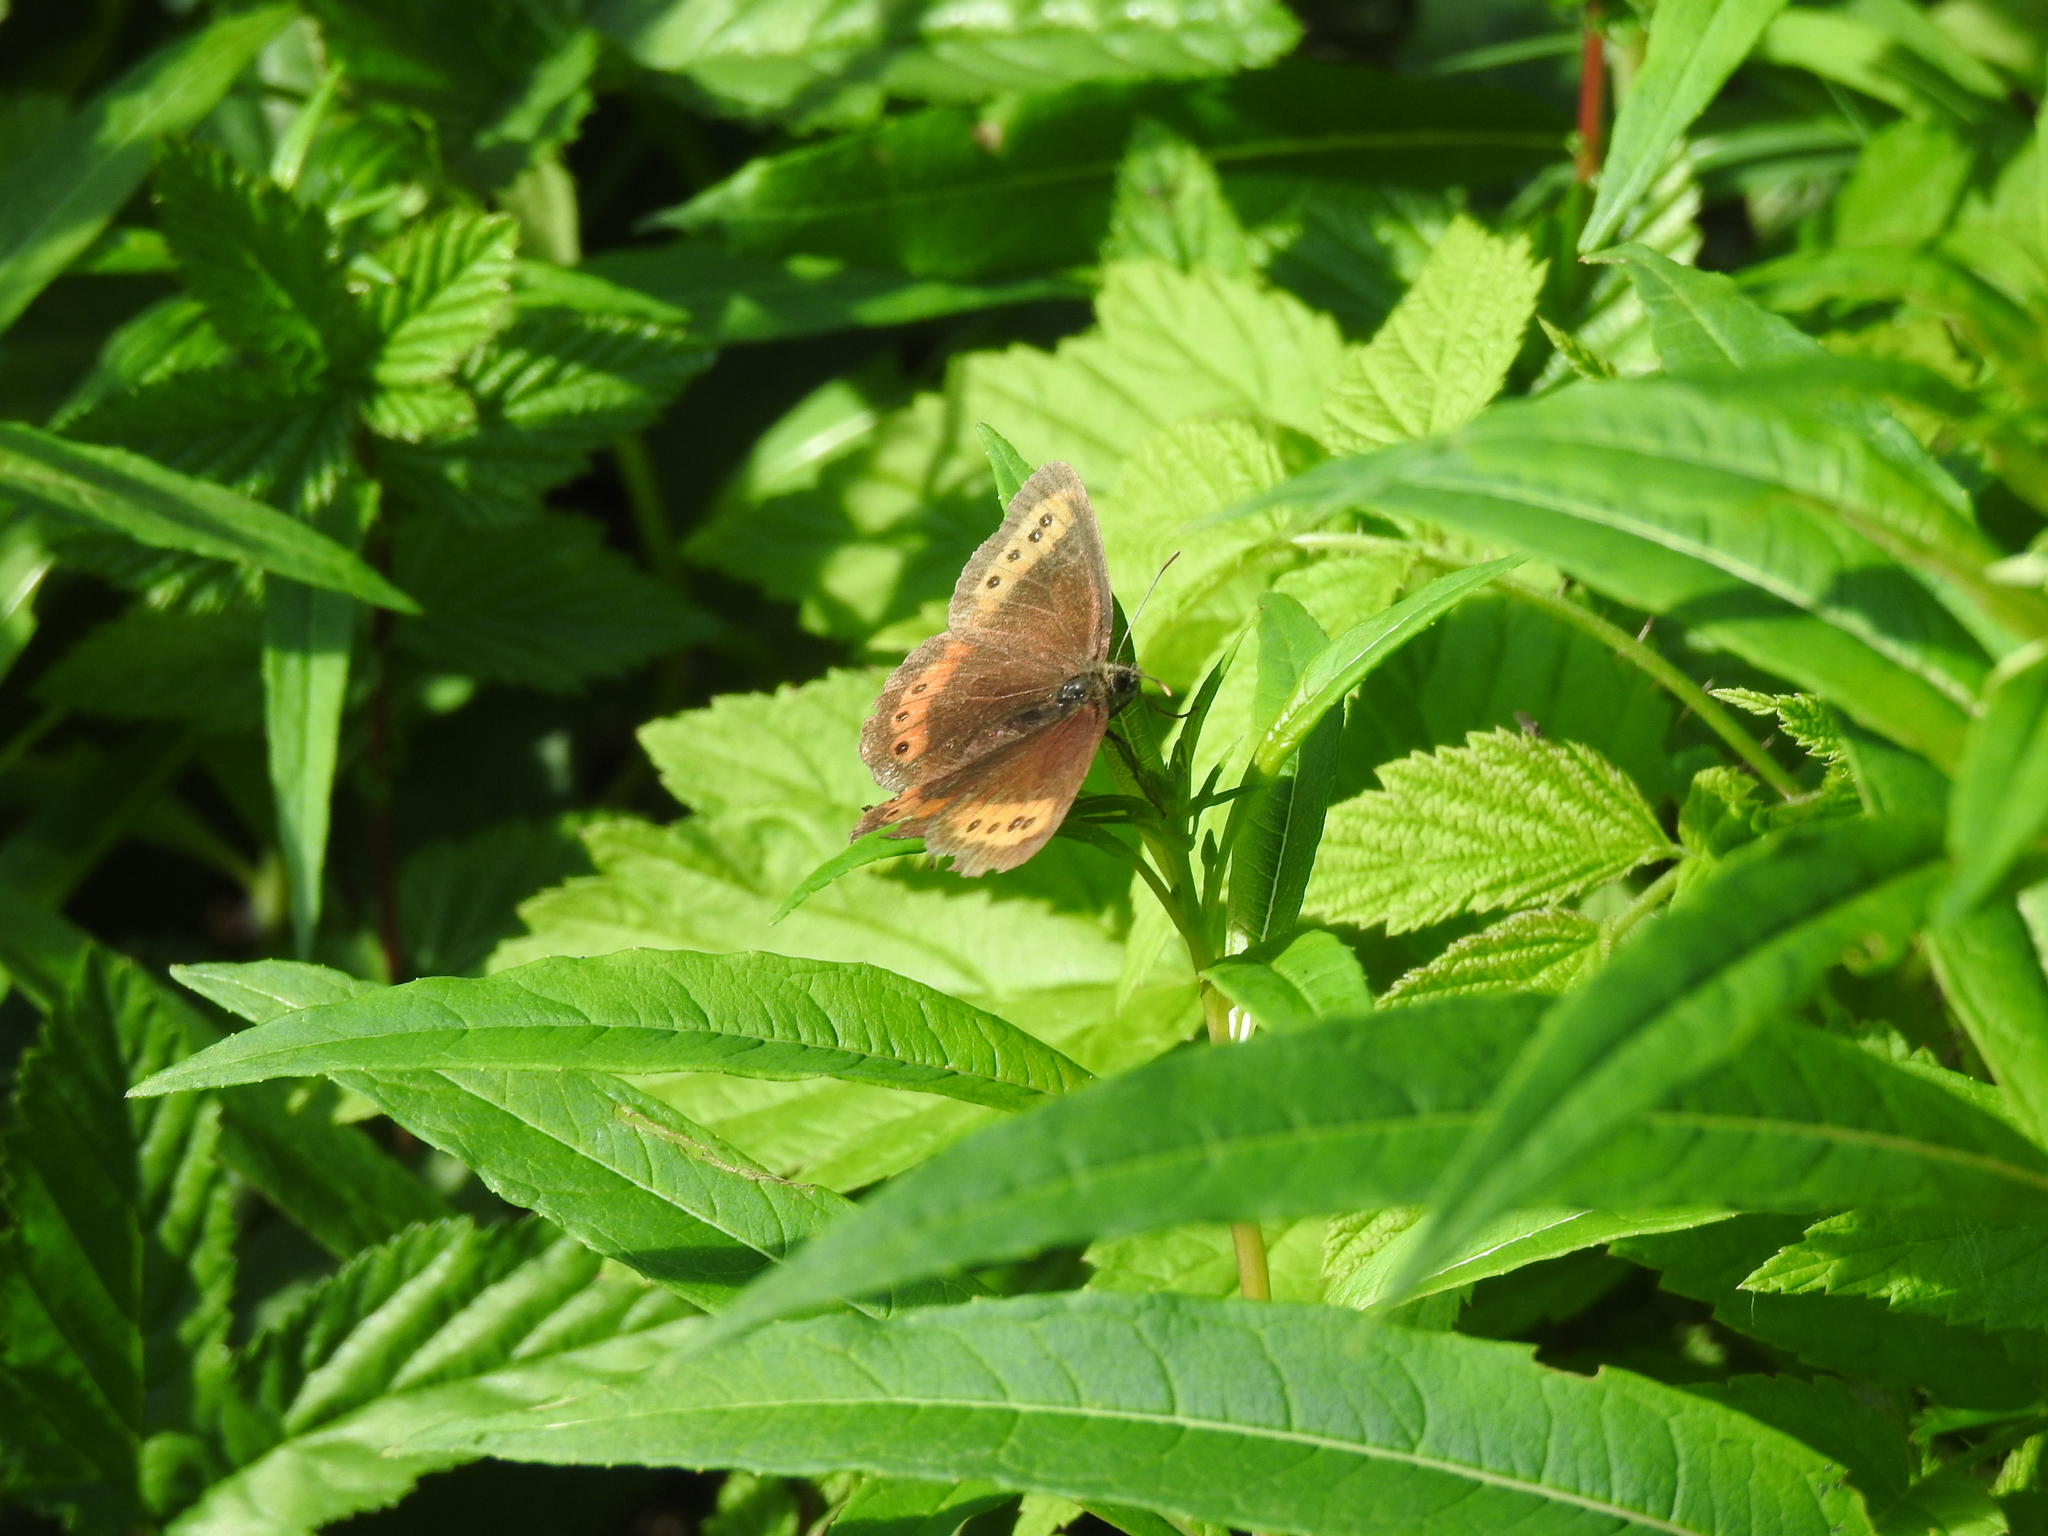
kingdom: Animalia
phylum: Arthropoda
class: Insecta
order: Lepidoptera
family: Nymphalidae
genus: Erebia
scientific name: Erebia ligea
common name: Arran brown
